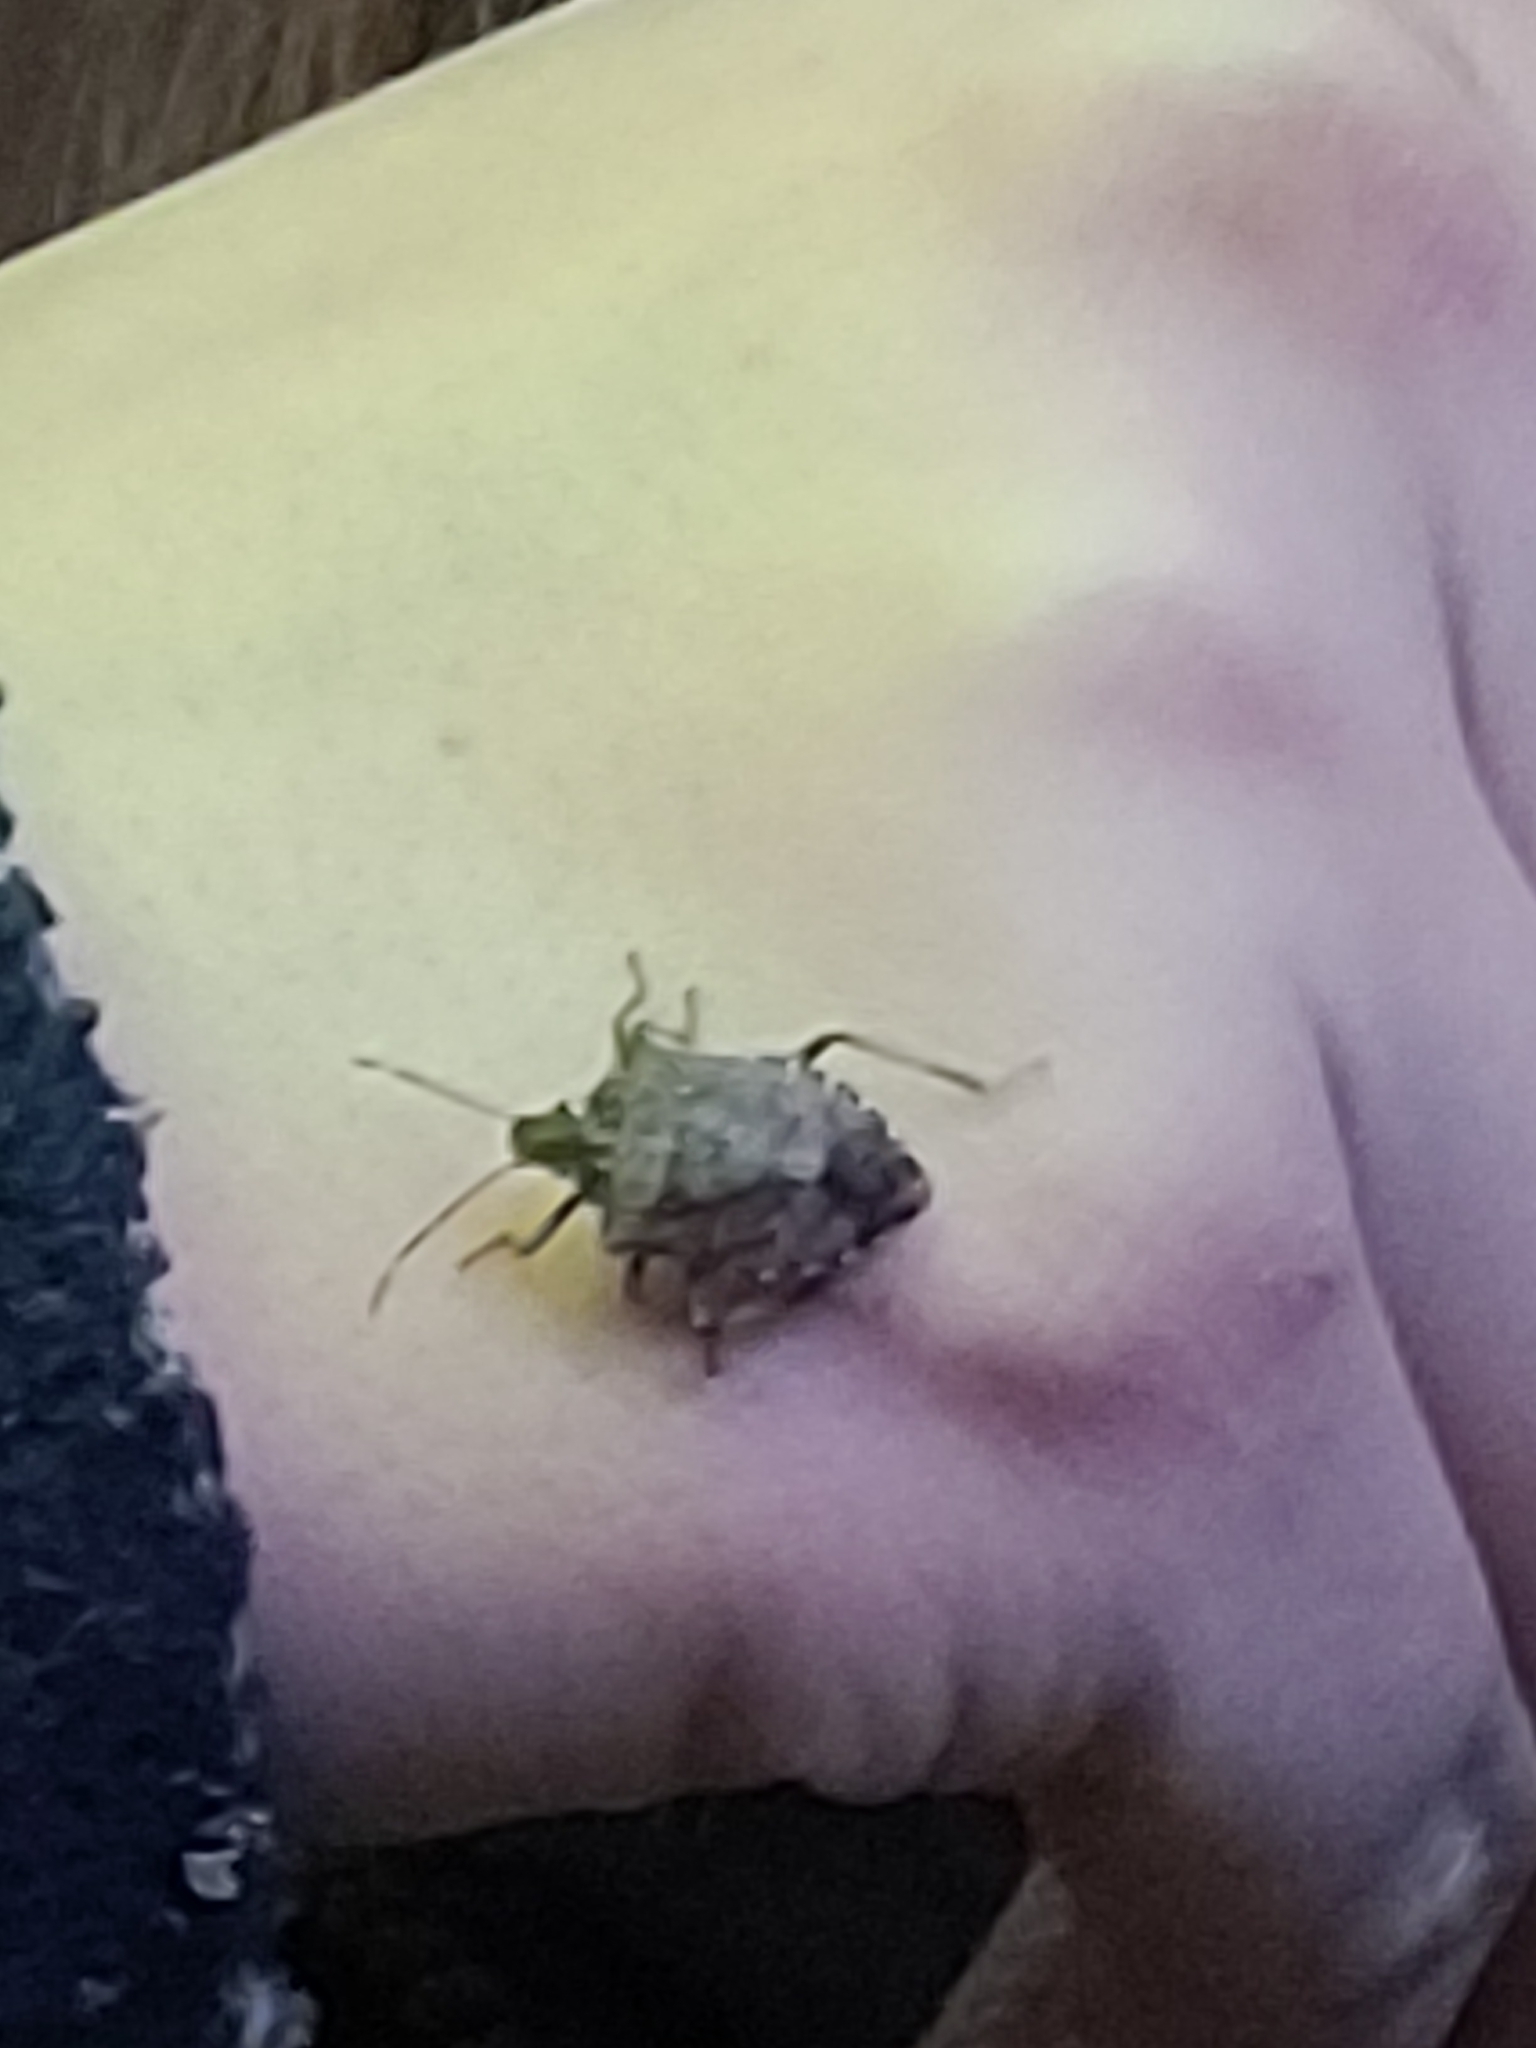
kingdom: Animalia
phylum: Arthropoda
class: Insecta
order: Hemiptera
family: Pentatomidae
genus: Halyomorpha
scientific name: Halyomorpha halys
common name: Brown marmorated stink bug
